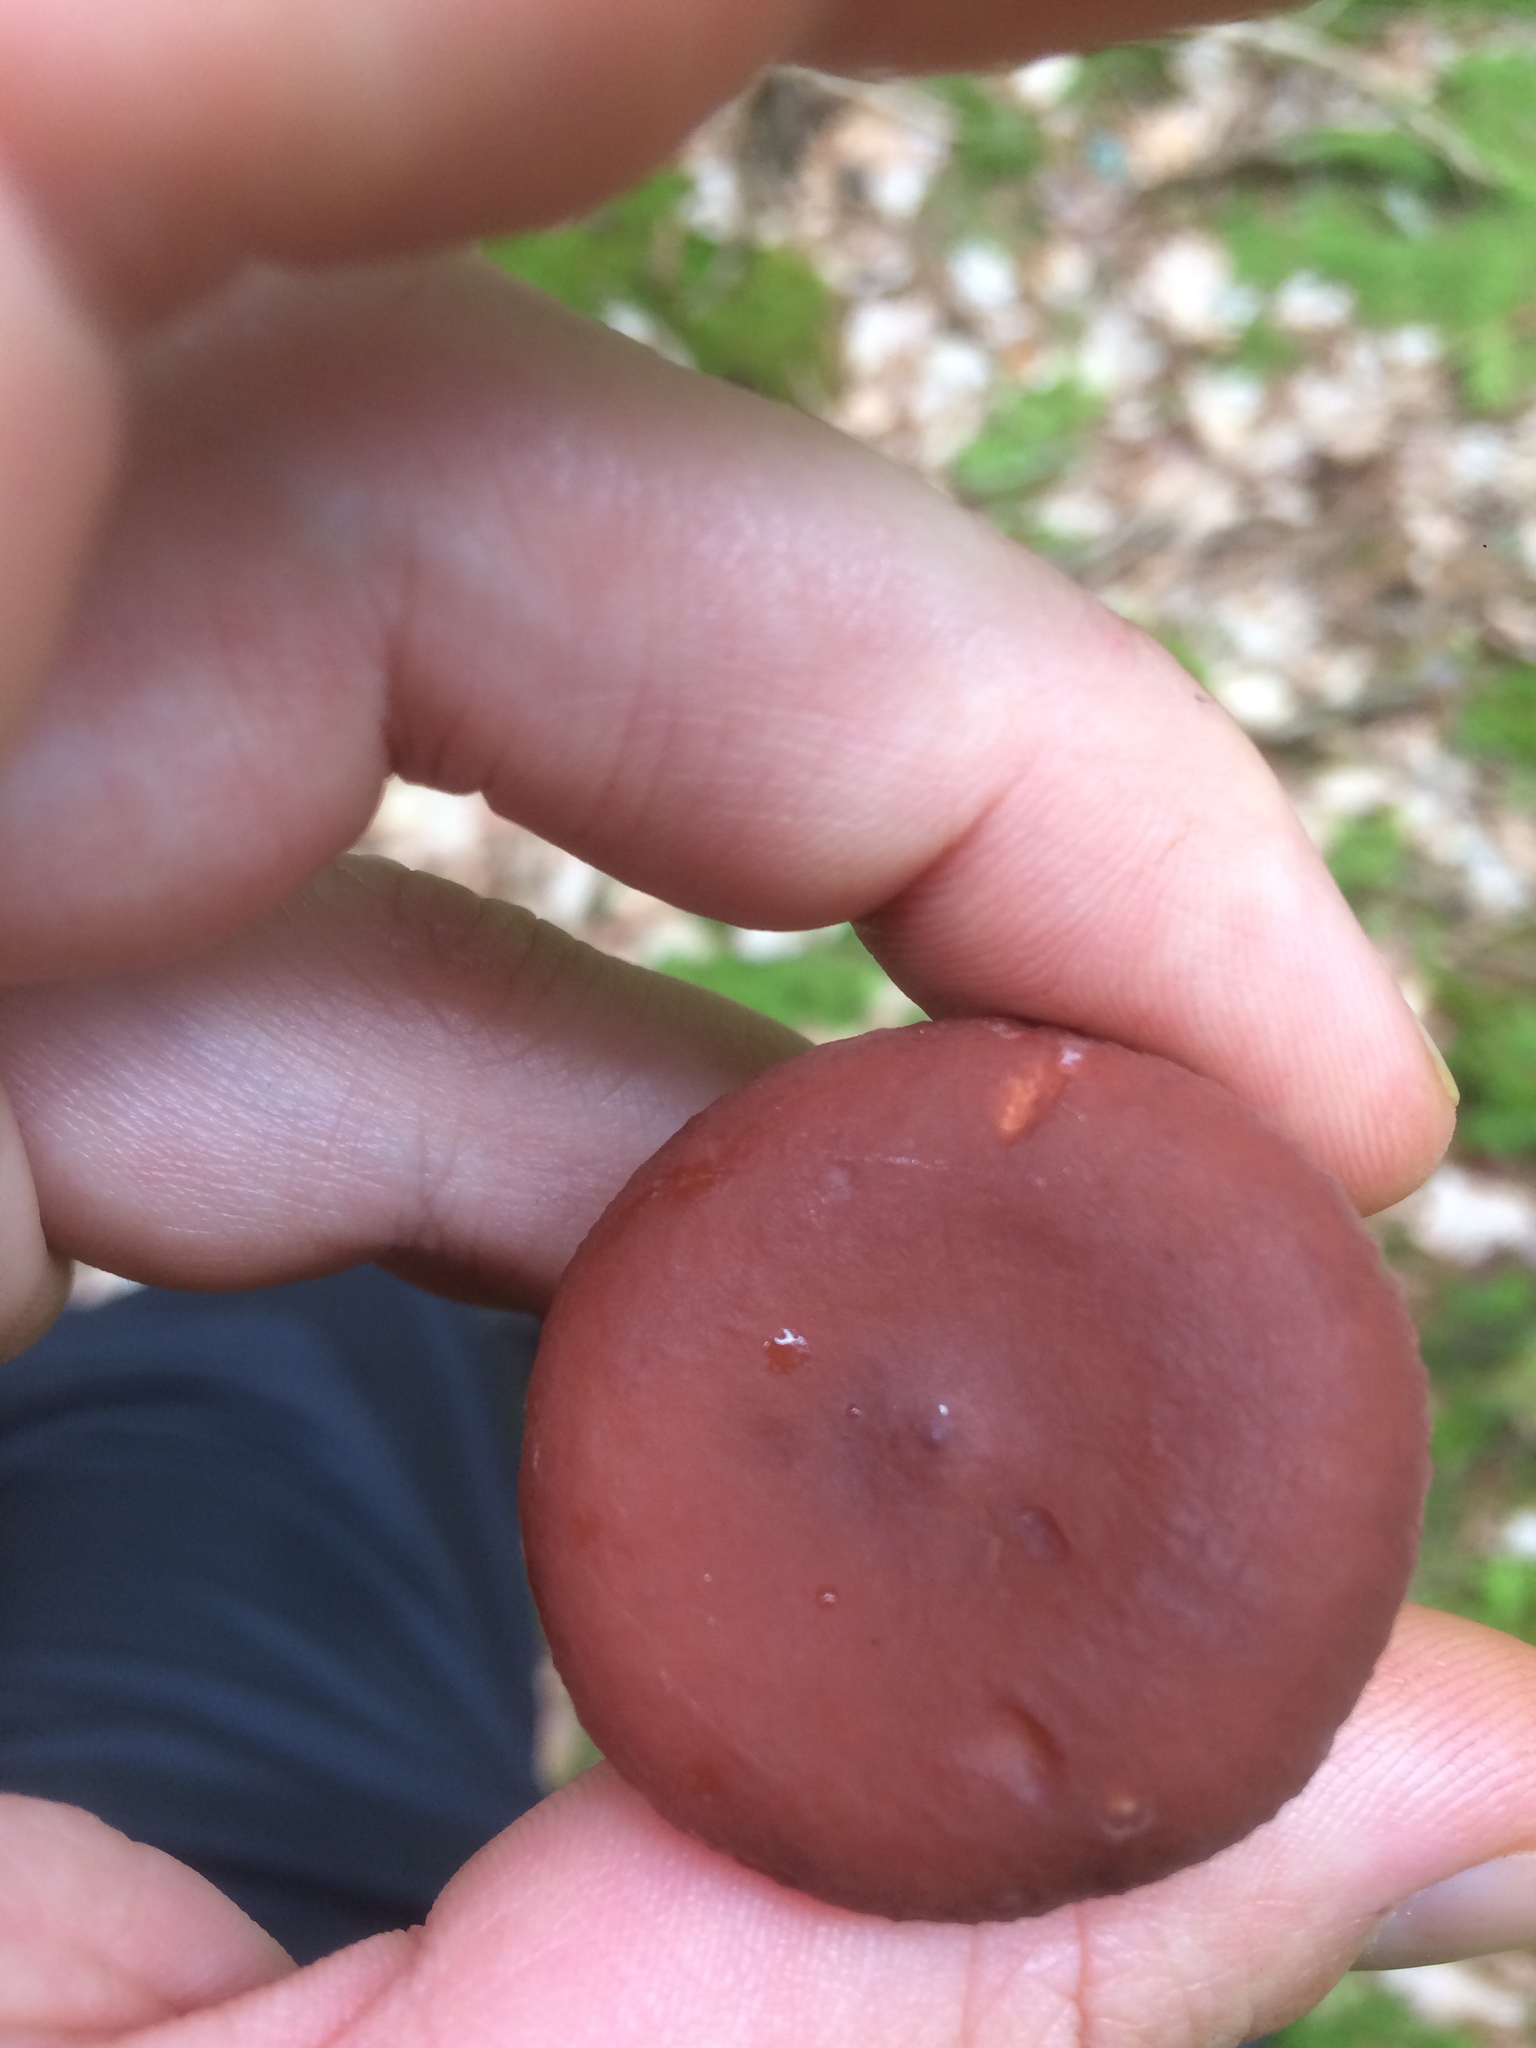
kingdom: Fungi
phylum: Basidiomycota
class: Agaricomycetes
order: Russulales
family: Russulaceae
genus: Lactarius
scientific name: Lactarius camphoratus
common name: Curry milkcap
